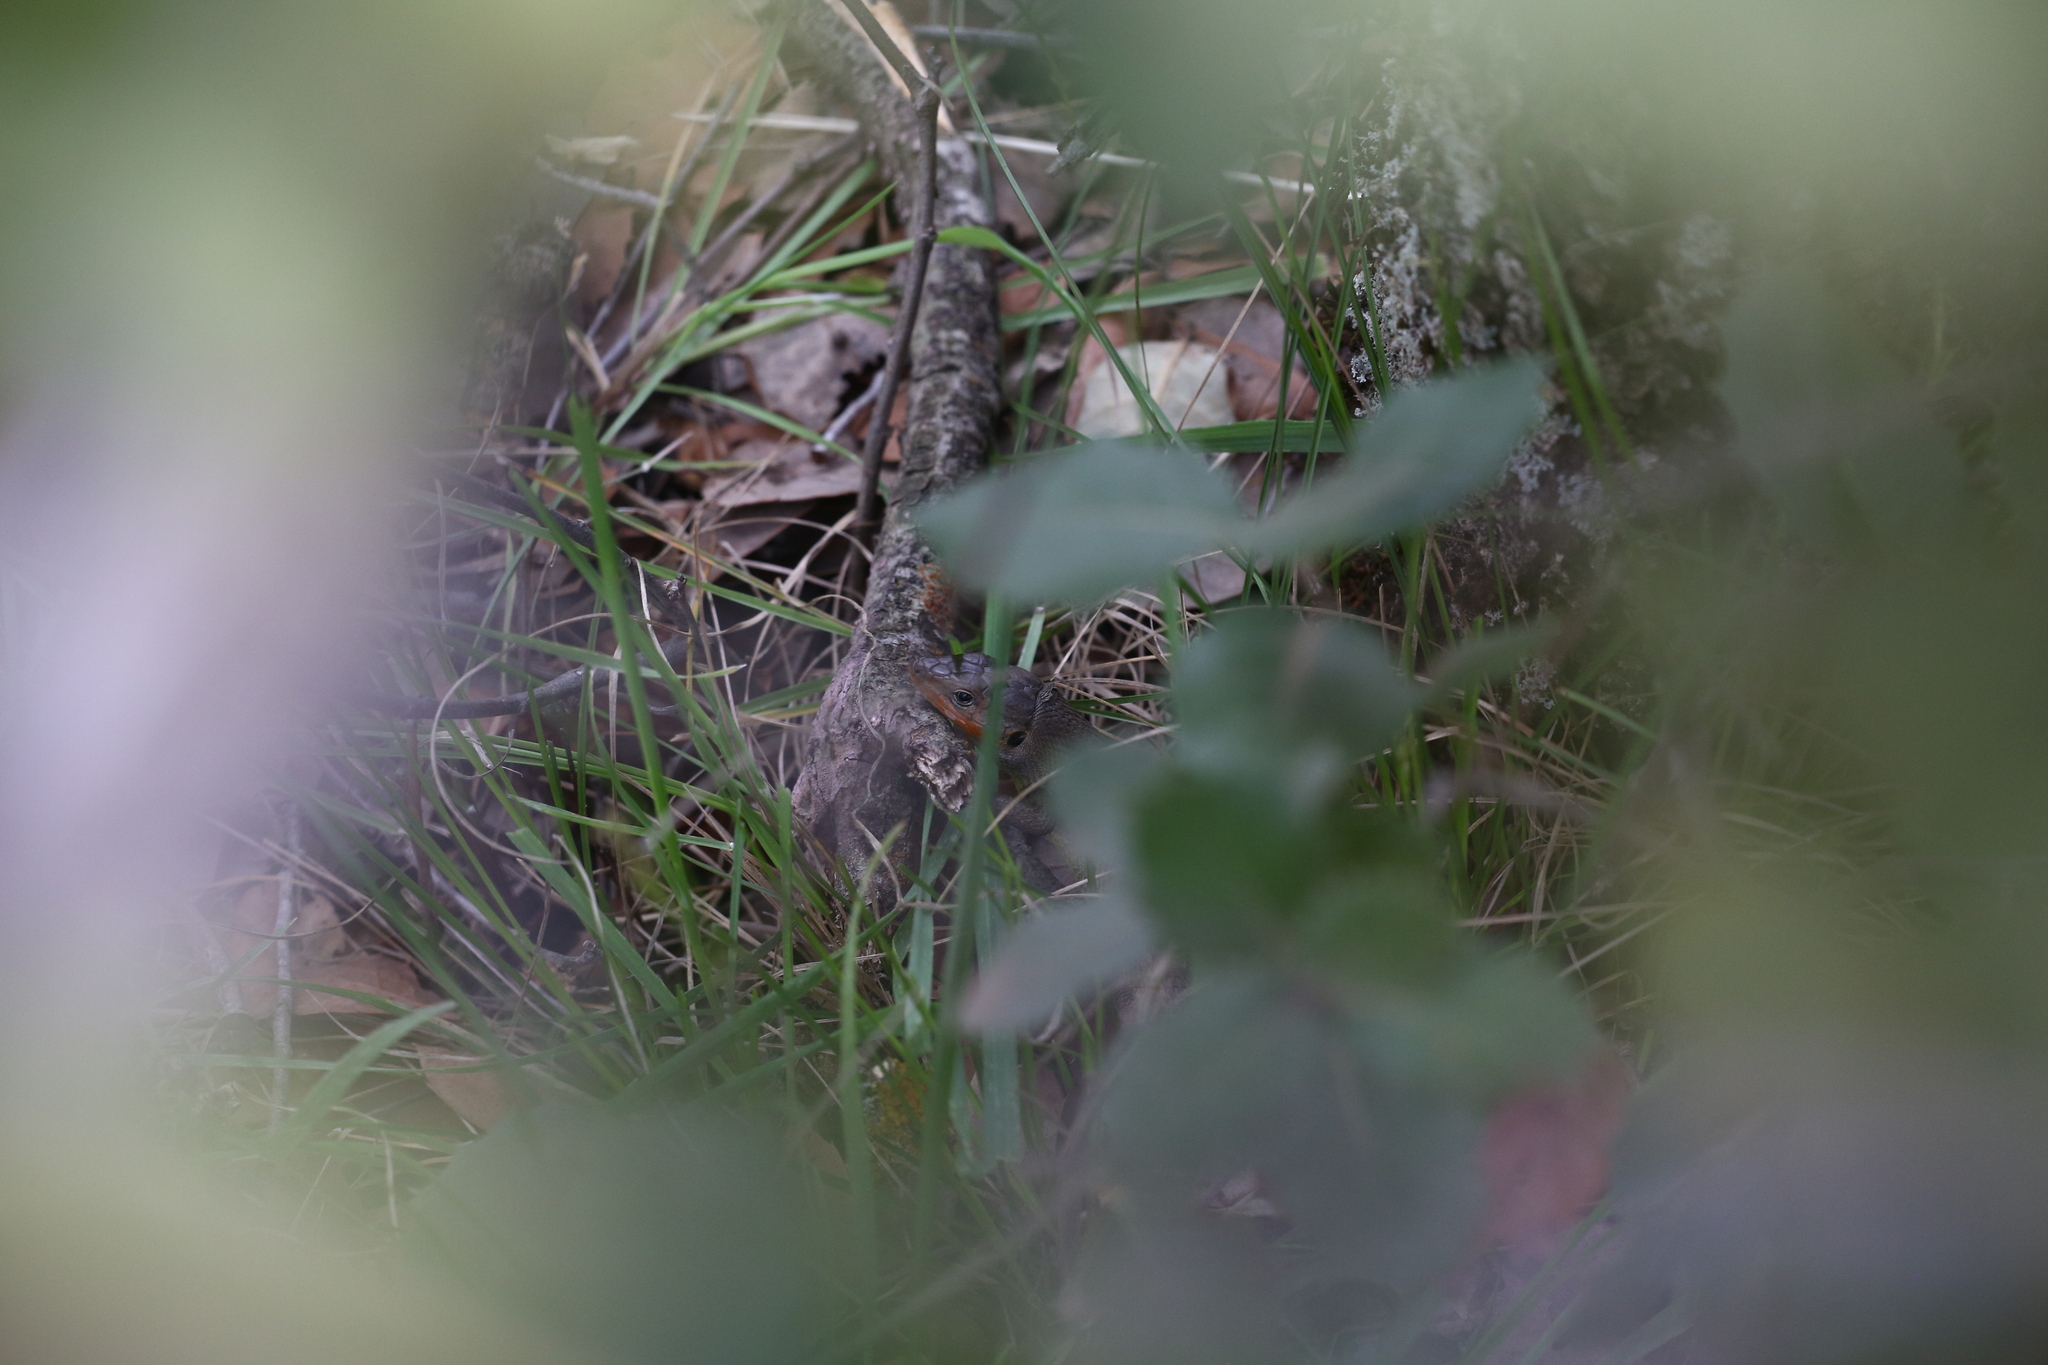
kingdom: Animalia
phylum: Chordata
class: Squamata
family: Lacertidae
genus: Psammodromus
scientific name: Psammodromus algirus
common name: Algerian psammodromus
